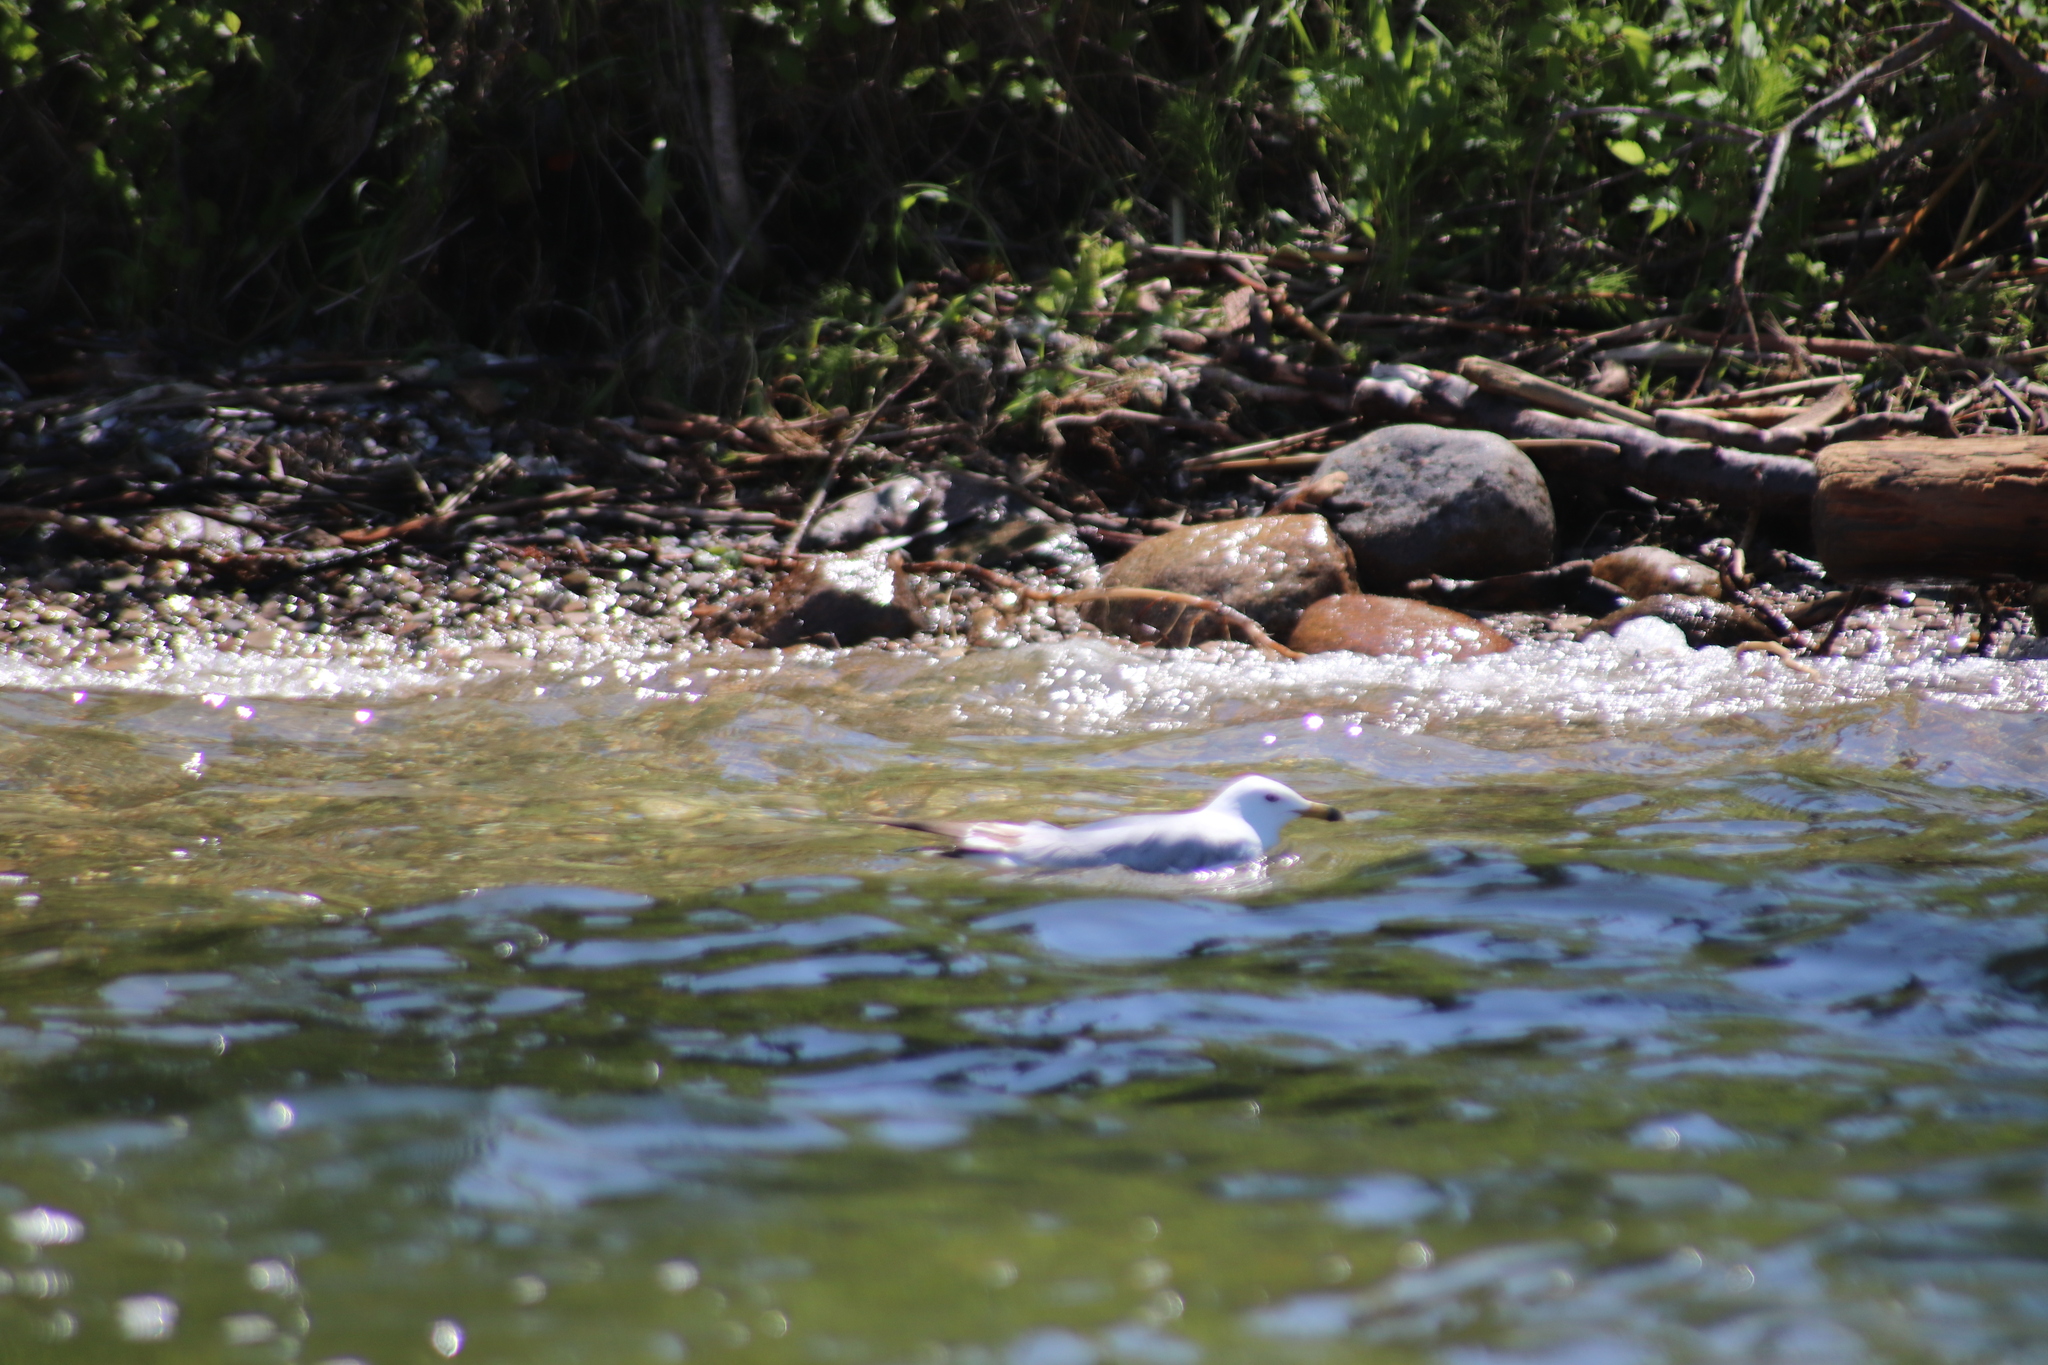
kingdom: Animalia
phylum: Chordata
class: Aves
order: Charadriiformes
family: Laridae
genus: Larus
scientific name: Larus delawarensis
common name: Ring-billed gull
